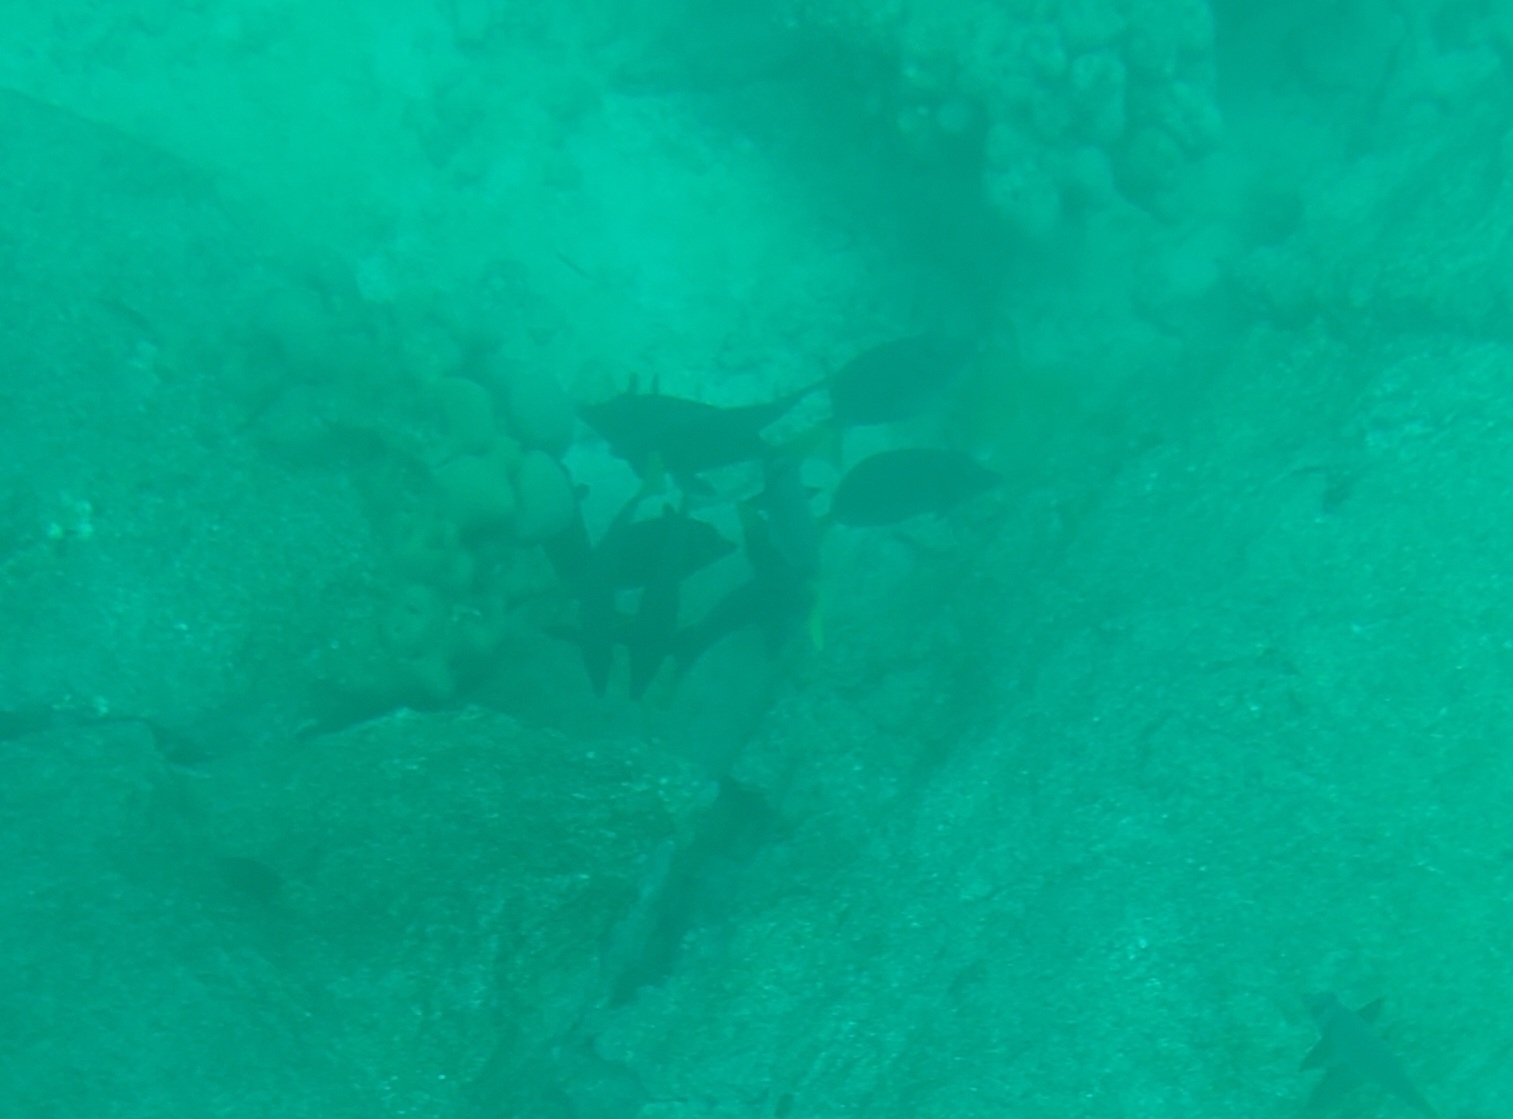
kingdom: Animalia
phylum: Chordata
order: Perciformes
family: Acanthuridae
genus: Prionurus
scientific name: Prionurus laticlavius
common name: Razor surgeonfish
